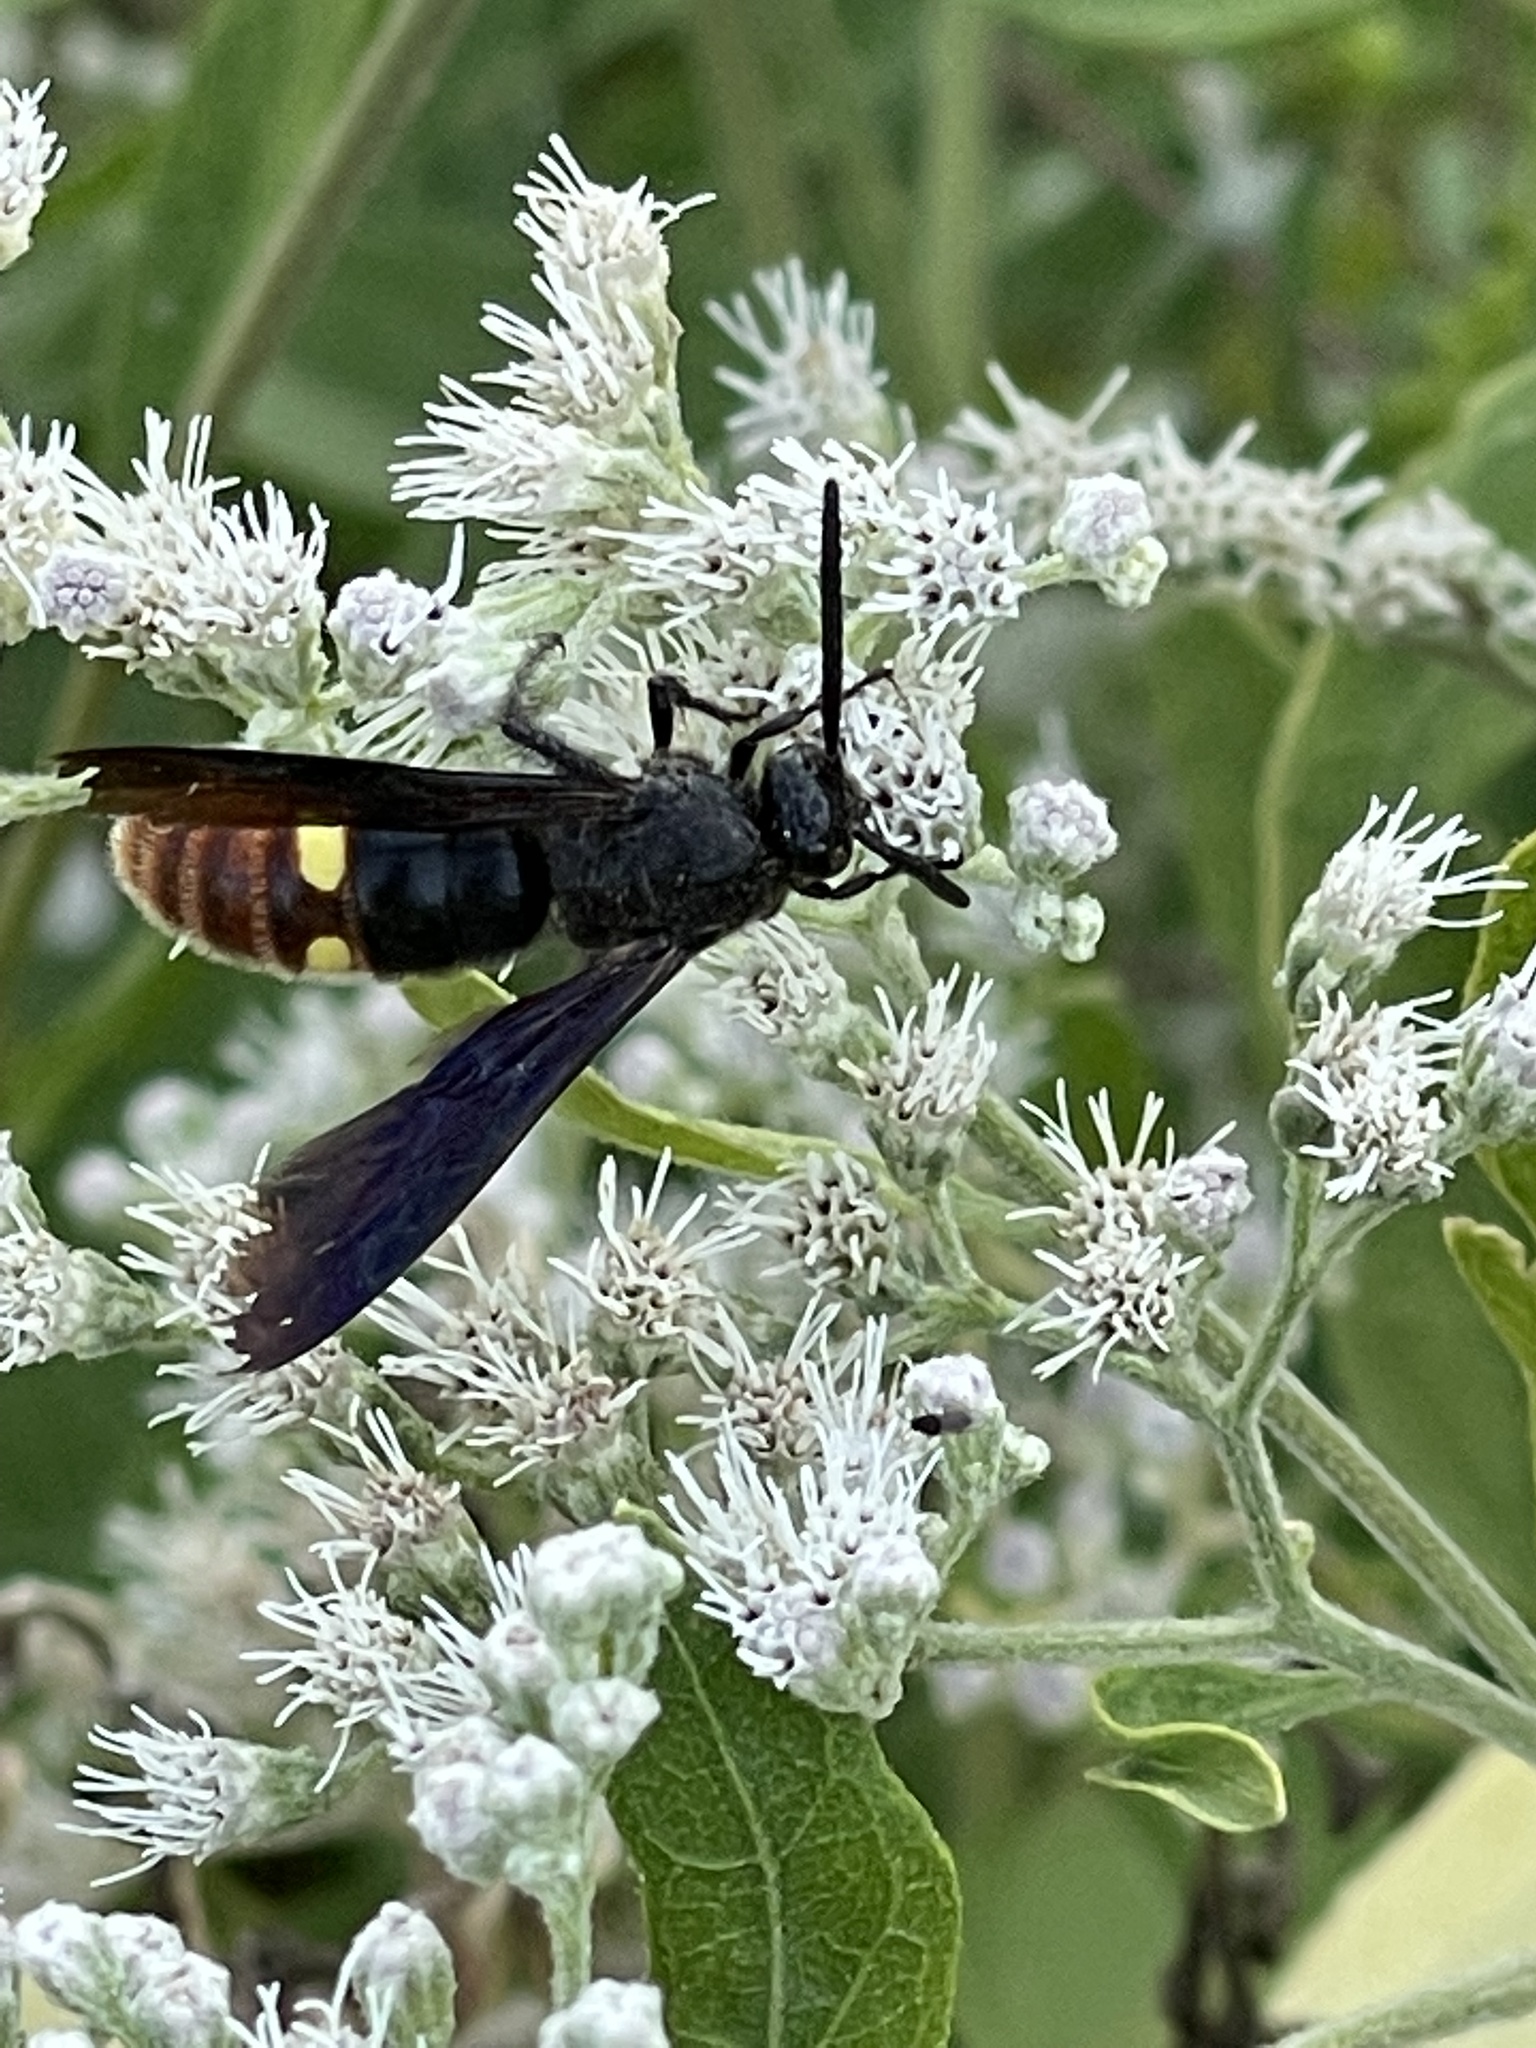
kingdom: Animalia
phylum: Arthropoda
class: Insecta
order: Hymenoptera
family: Scoliidae
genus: Scolia
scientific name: Scolia dubia
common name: Blue-winged scoliid wasp
